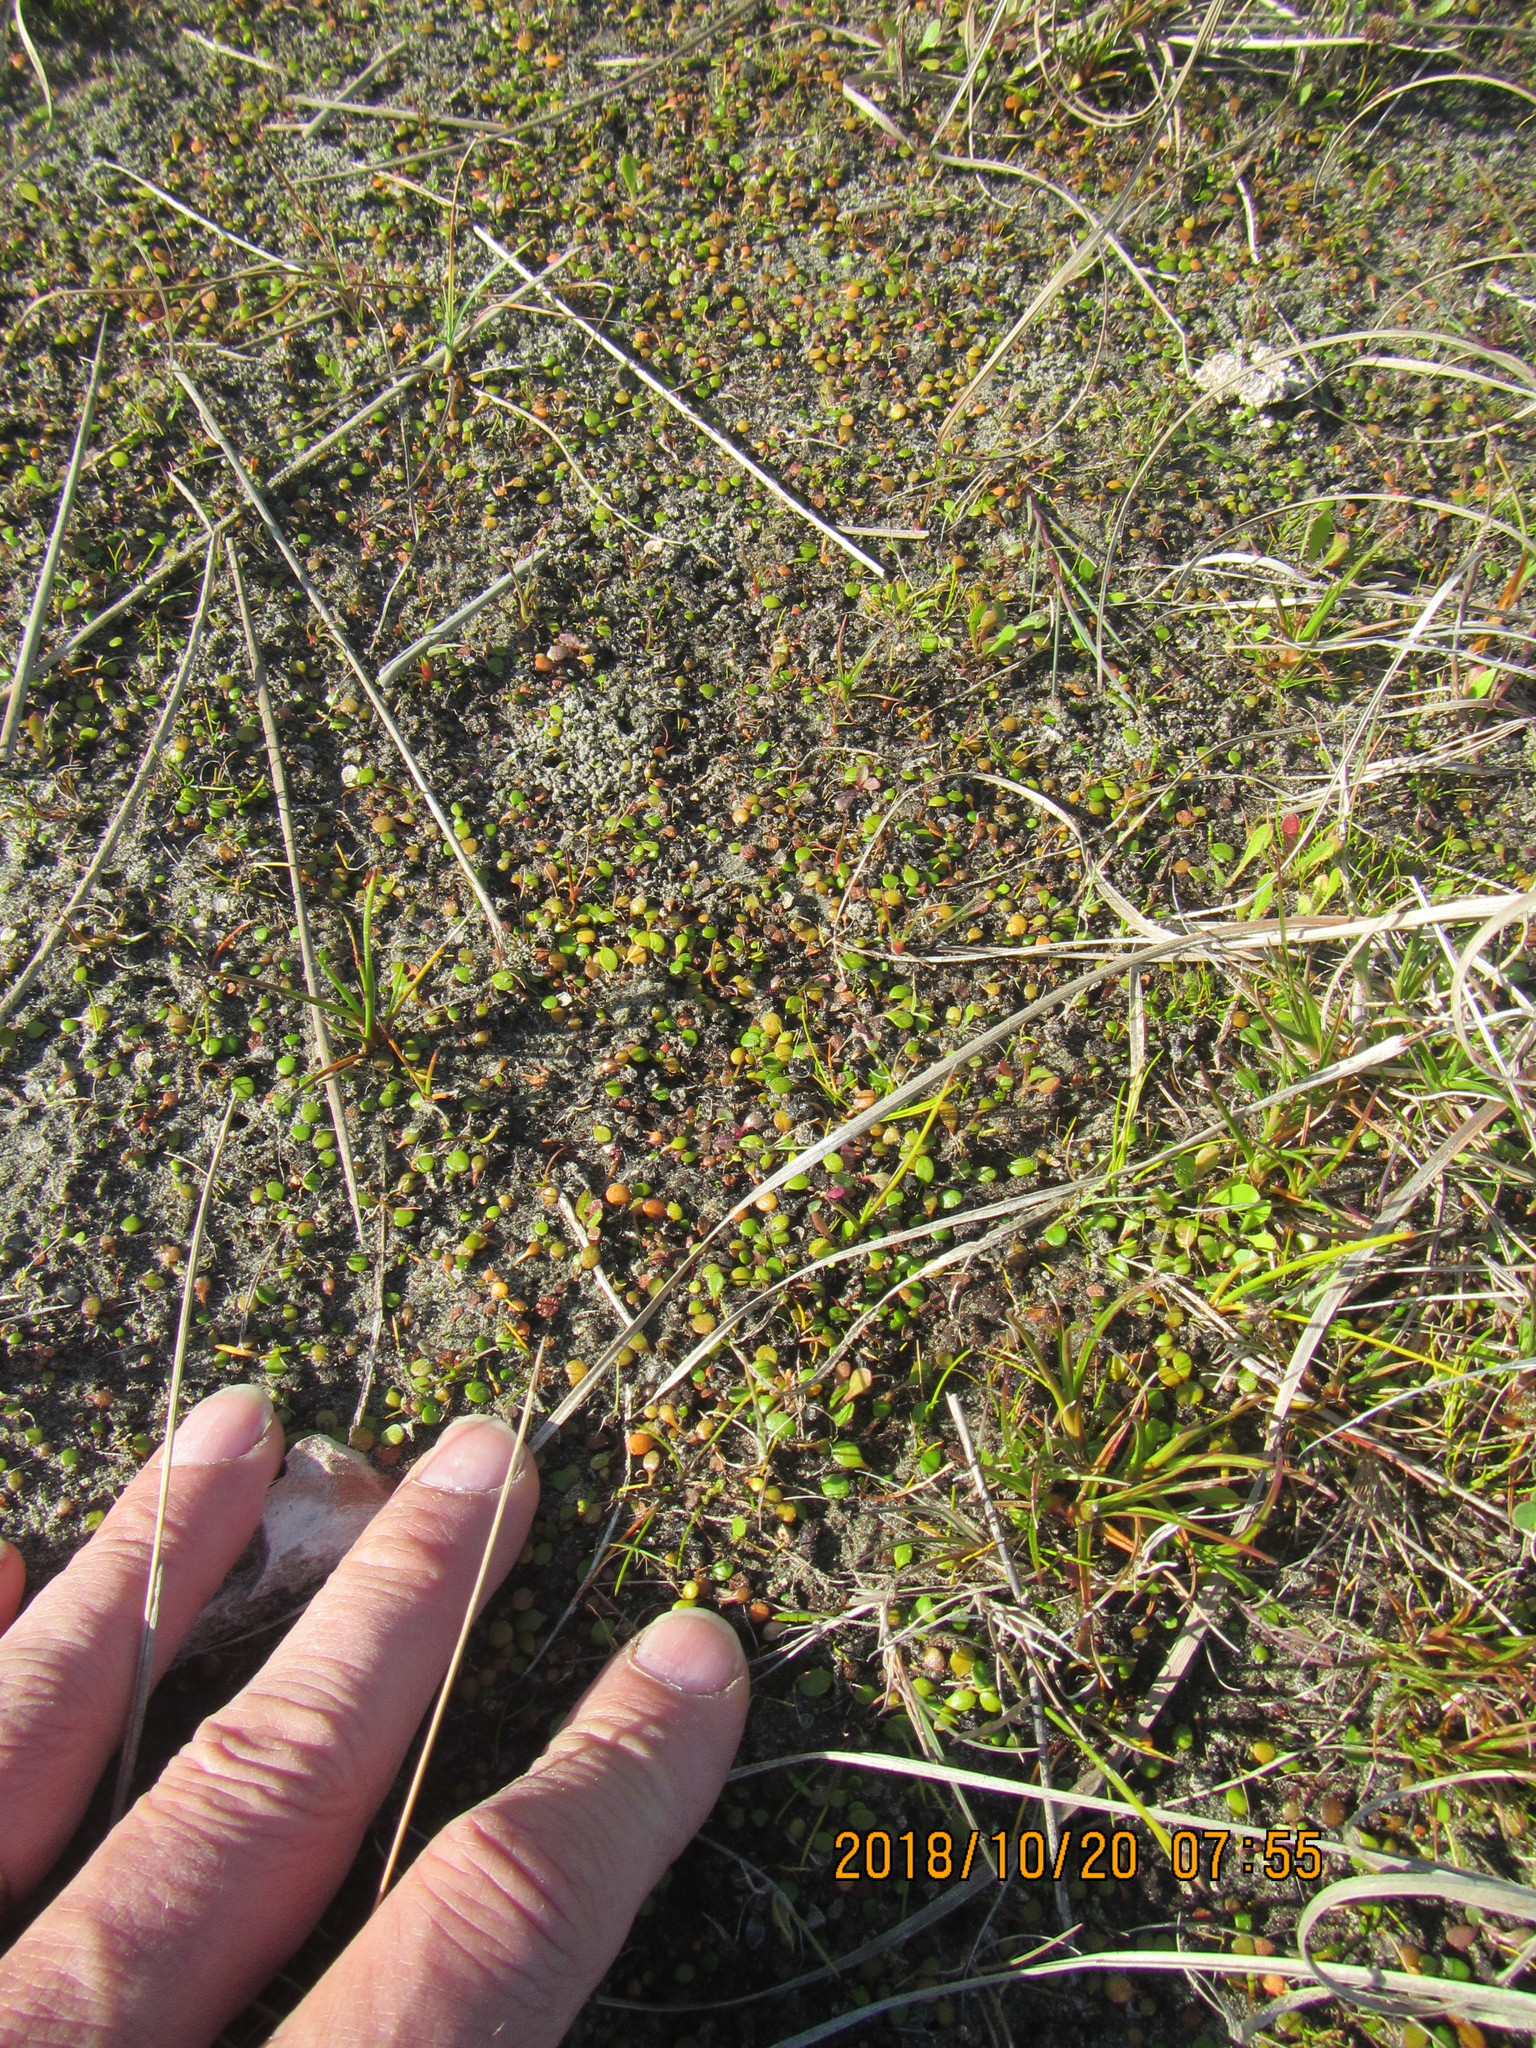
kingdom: Plantae
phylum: Tracheophyta
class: Magnoliopsida
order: Asterales
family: Goodeniaceae
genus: Goodenia
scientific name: Goodenia heenanii
